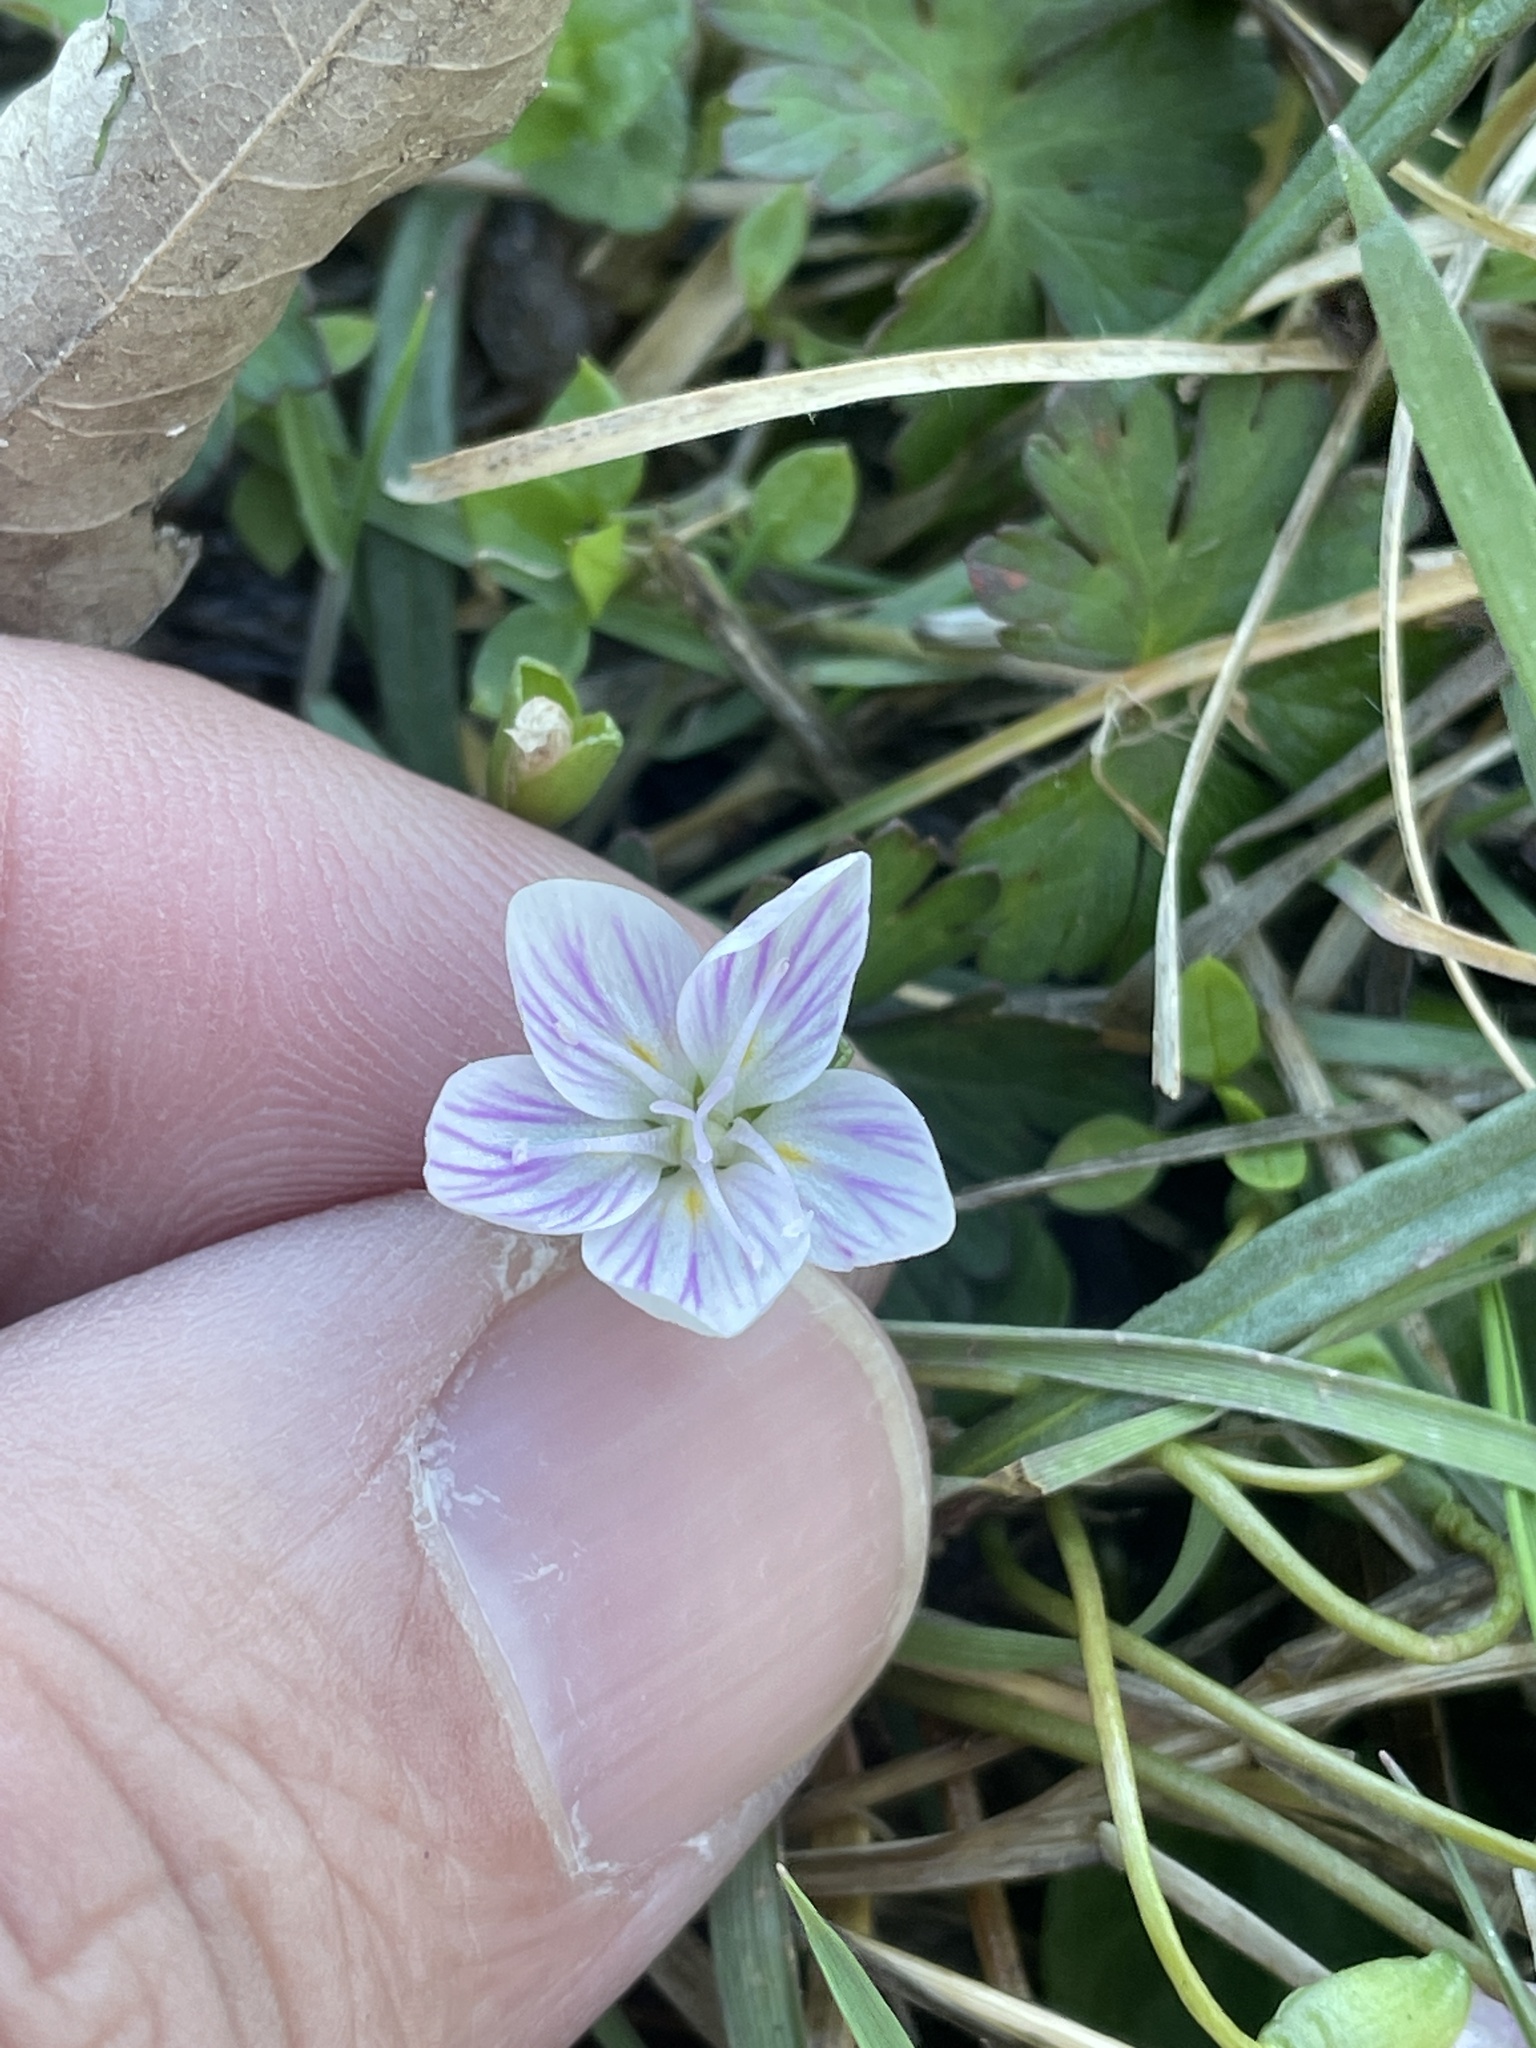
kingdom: Plantae
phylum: Tracheophyta
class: Magnoliopsida
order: Caryophyllales
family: Montiaceae
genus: Claytonia
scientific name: Claytonia virginica
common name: Virginia springbeauty
